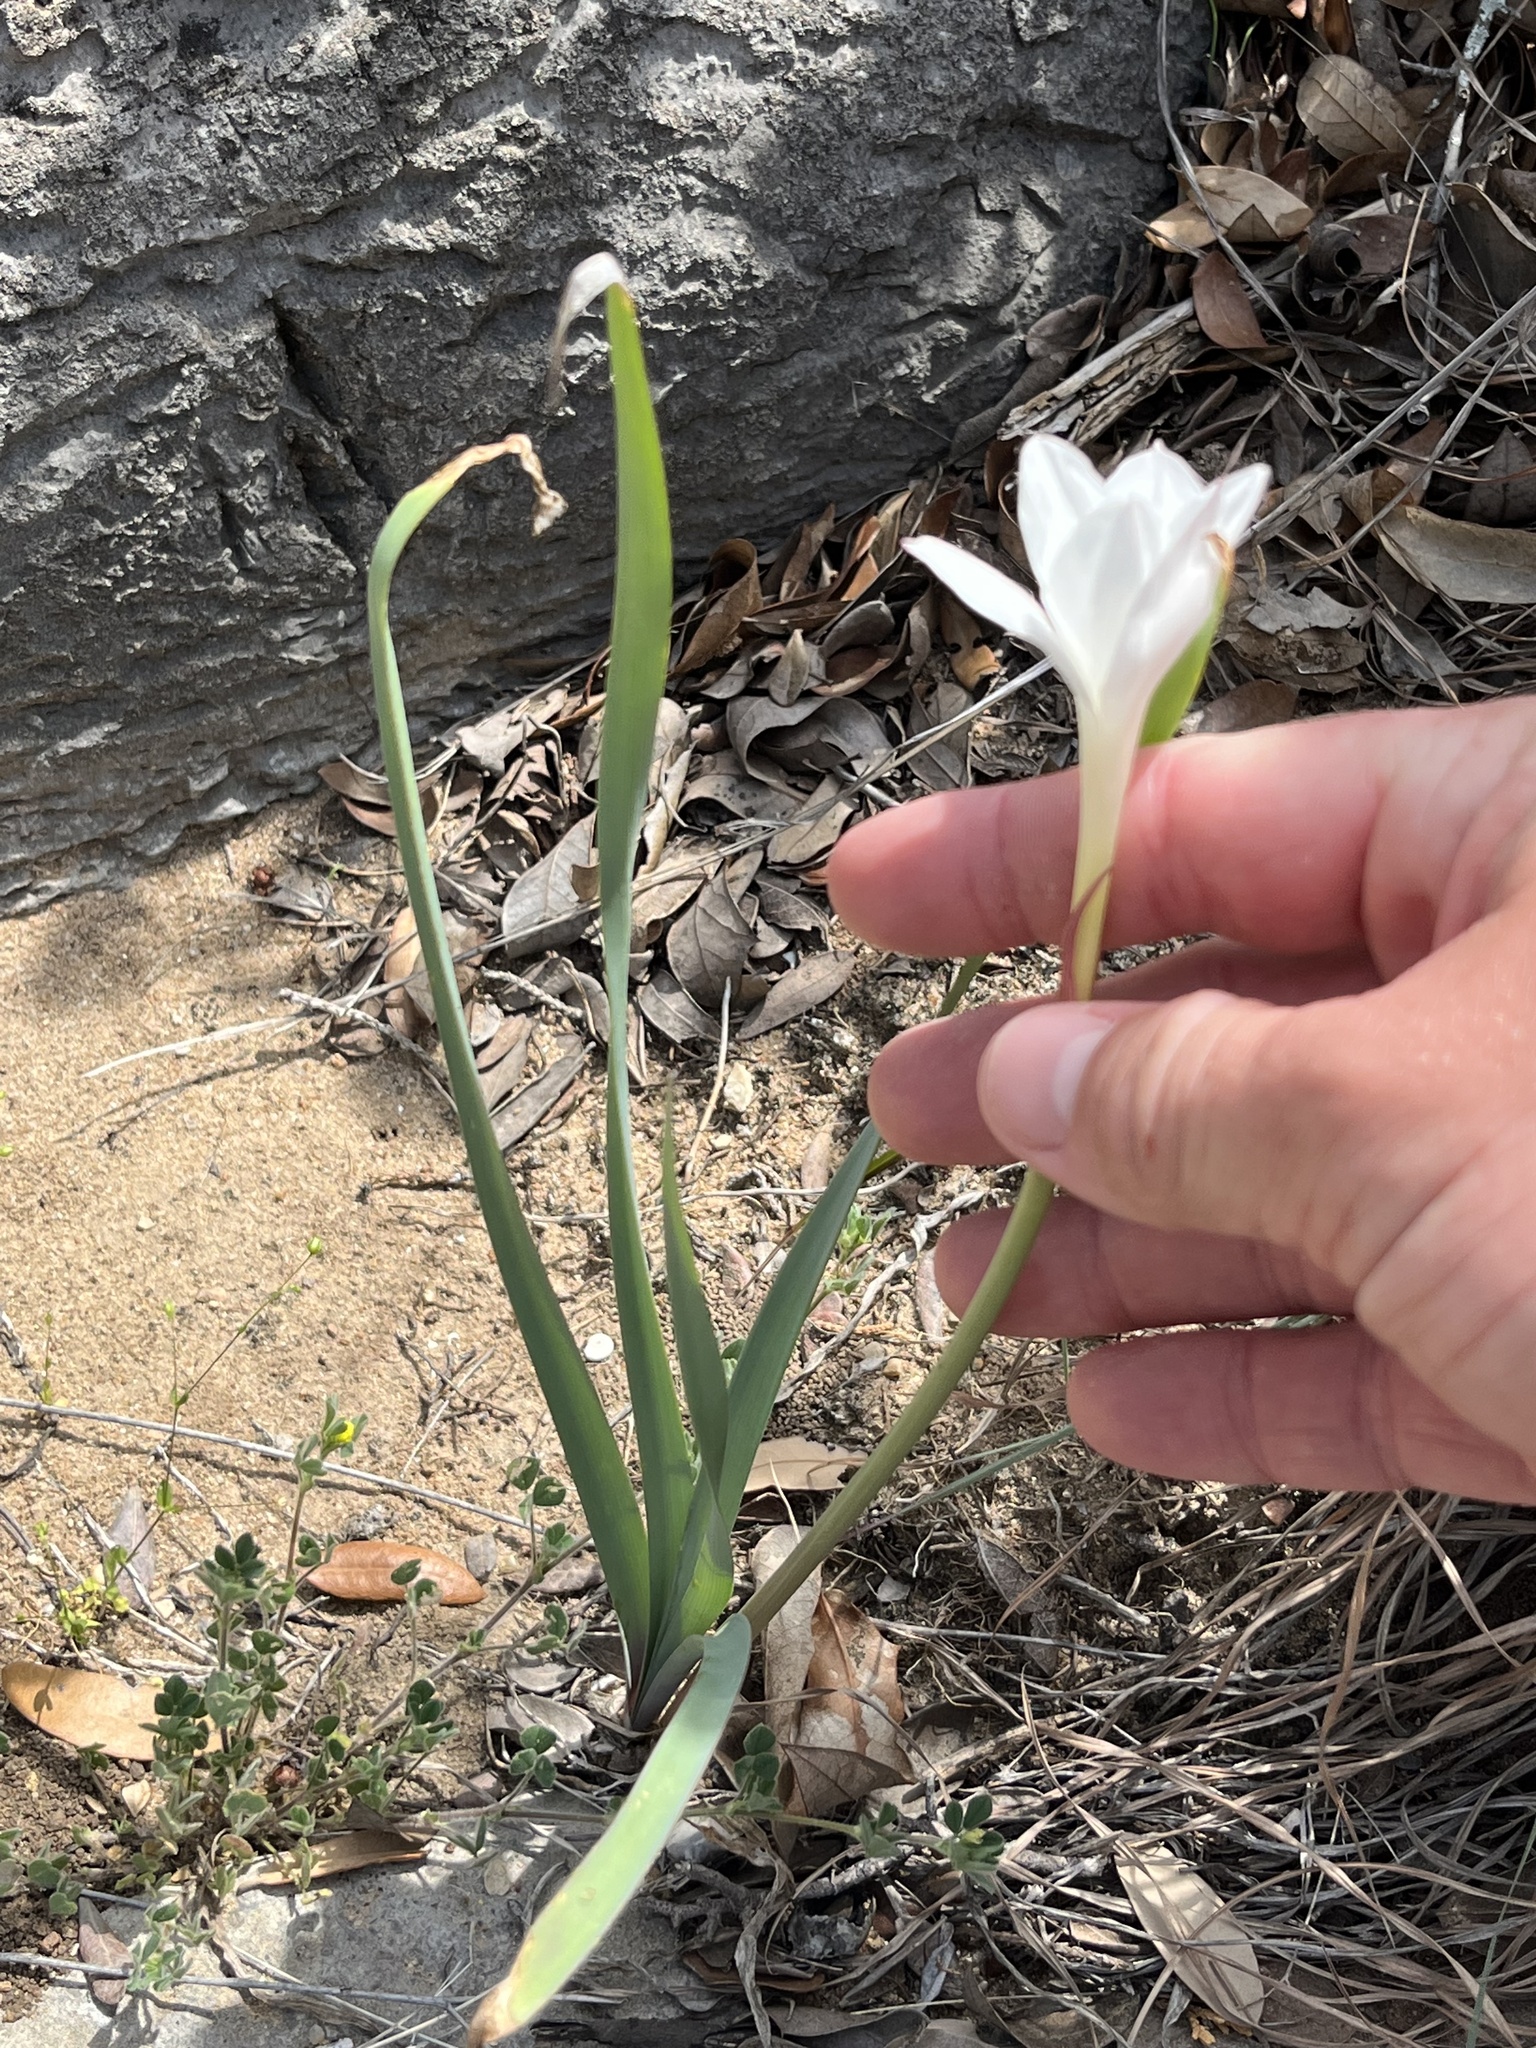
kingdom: Plantae
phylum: Tracheophyta
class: Liliopsida
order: Asparagales
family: Amaryllidaceae
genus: Zephyranthes
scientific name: Zephyranthes drummondii
